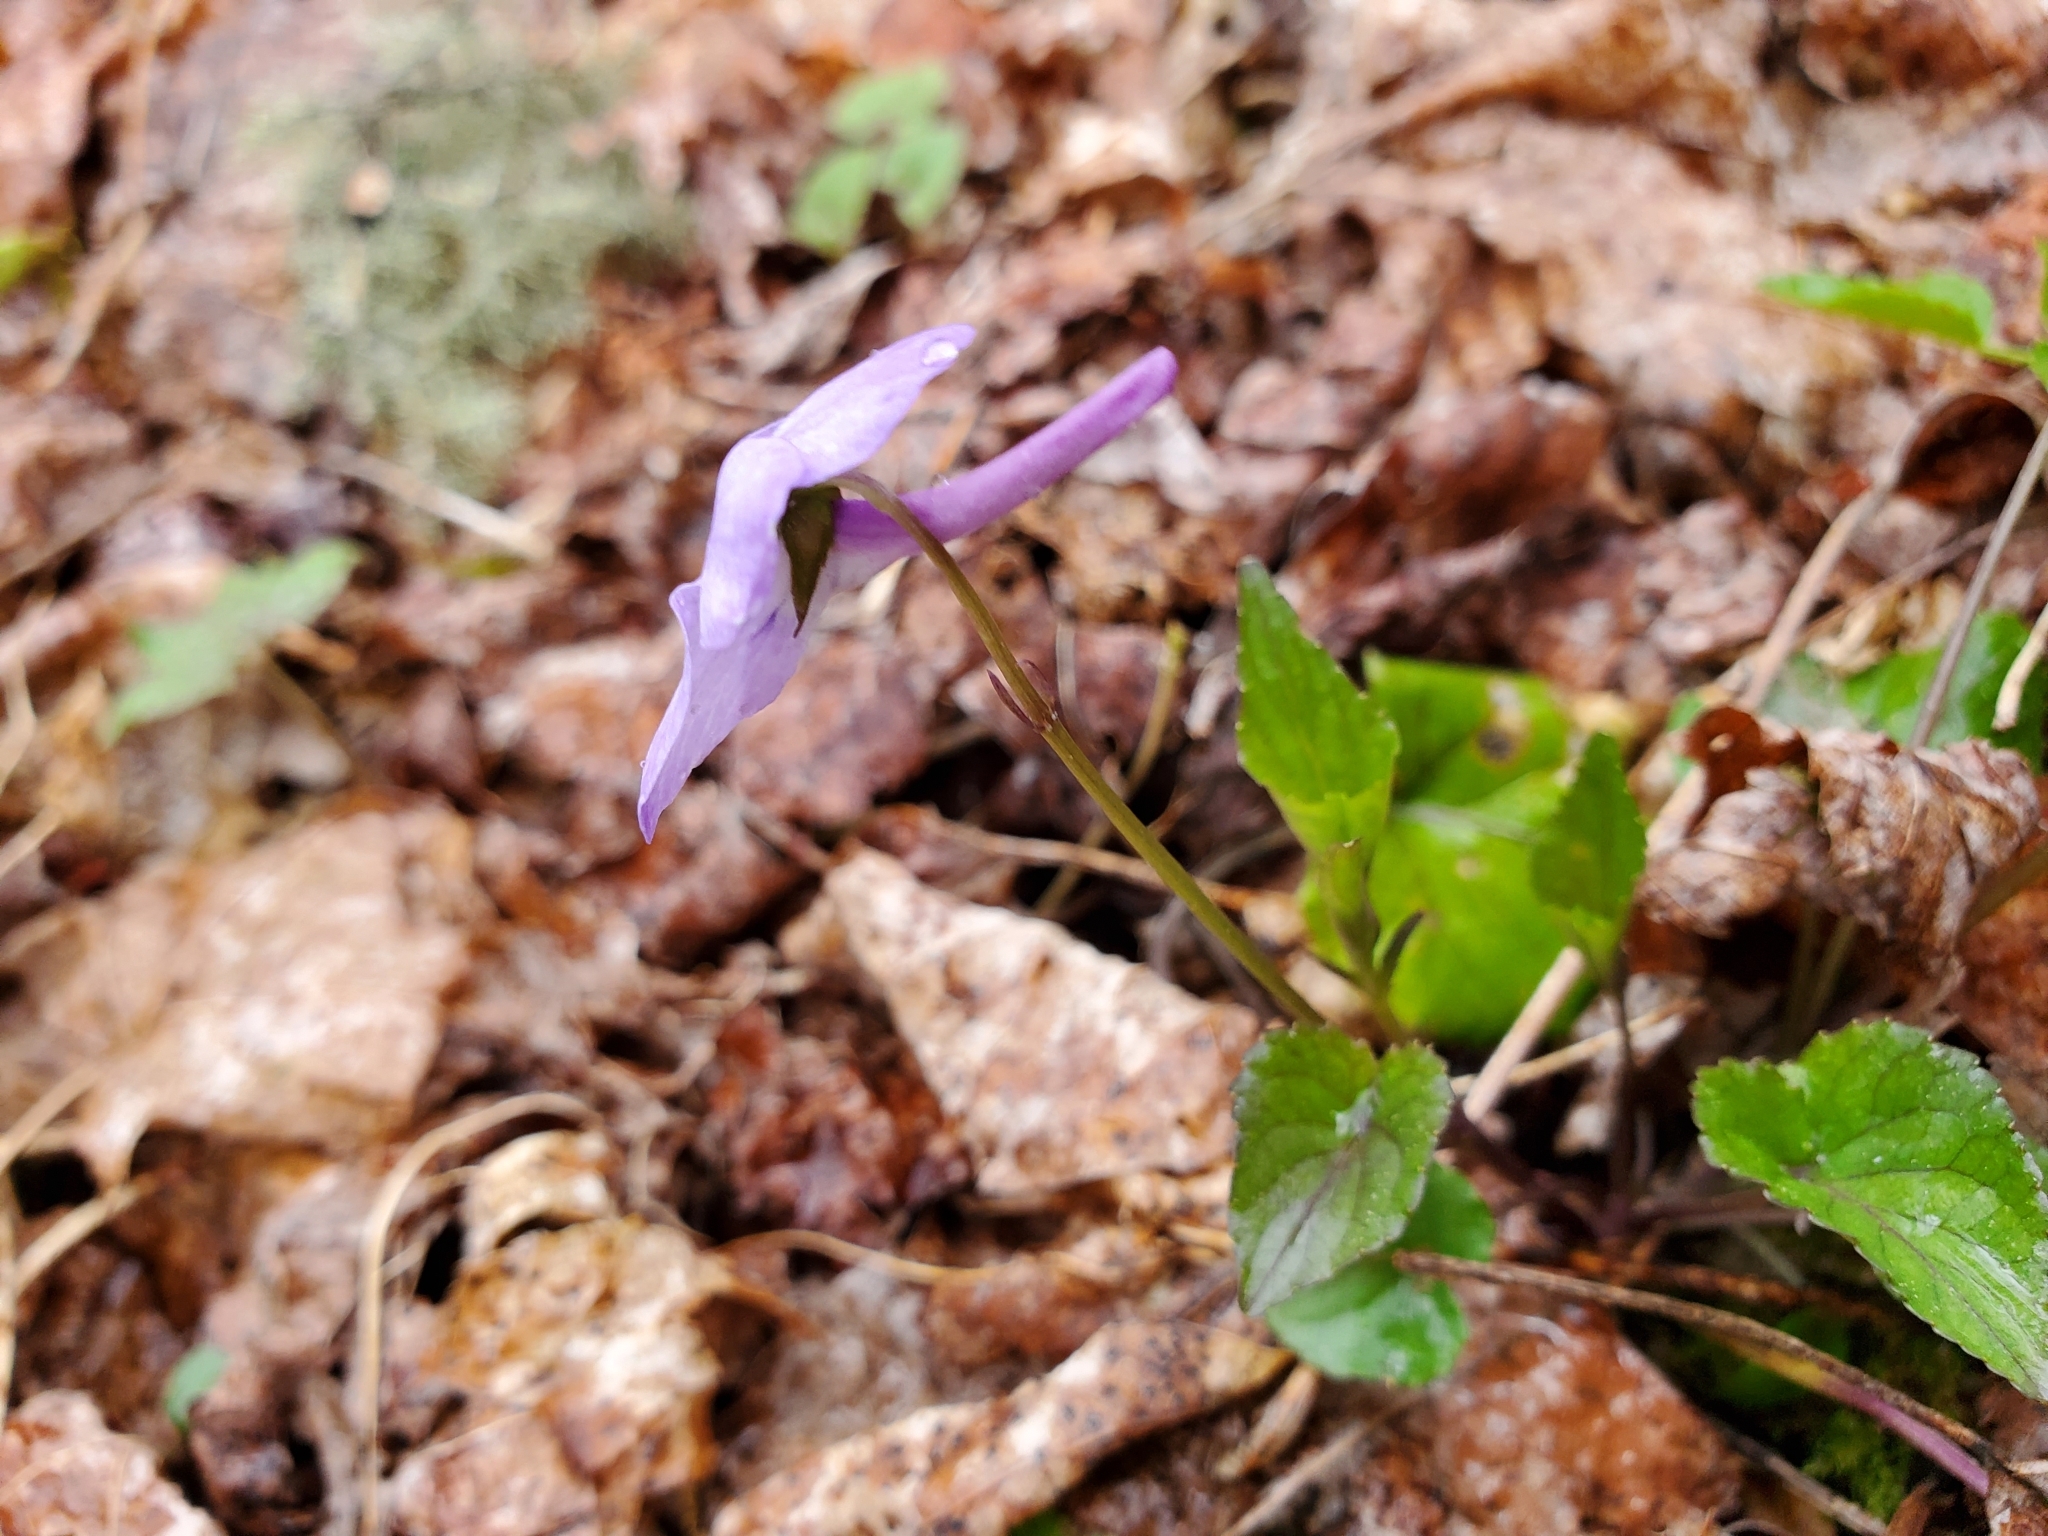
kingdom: Plantae
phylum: Tracheophyta
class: Magnoliopsida
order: Malpighiales
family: Violaceae
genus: Viola
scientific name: Viola rostrata
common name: Long-spur violet
